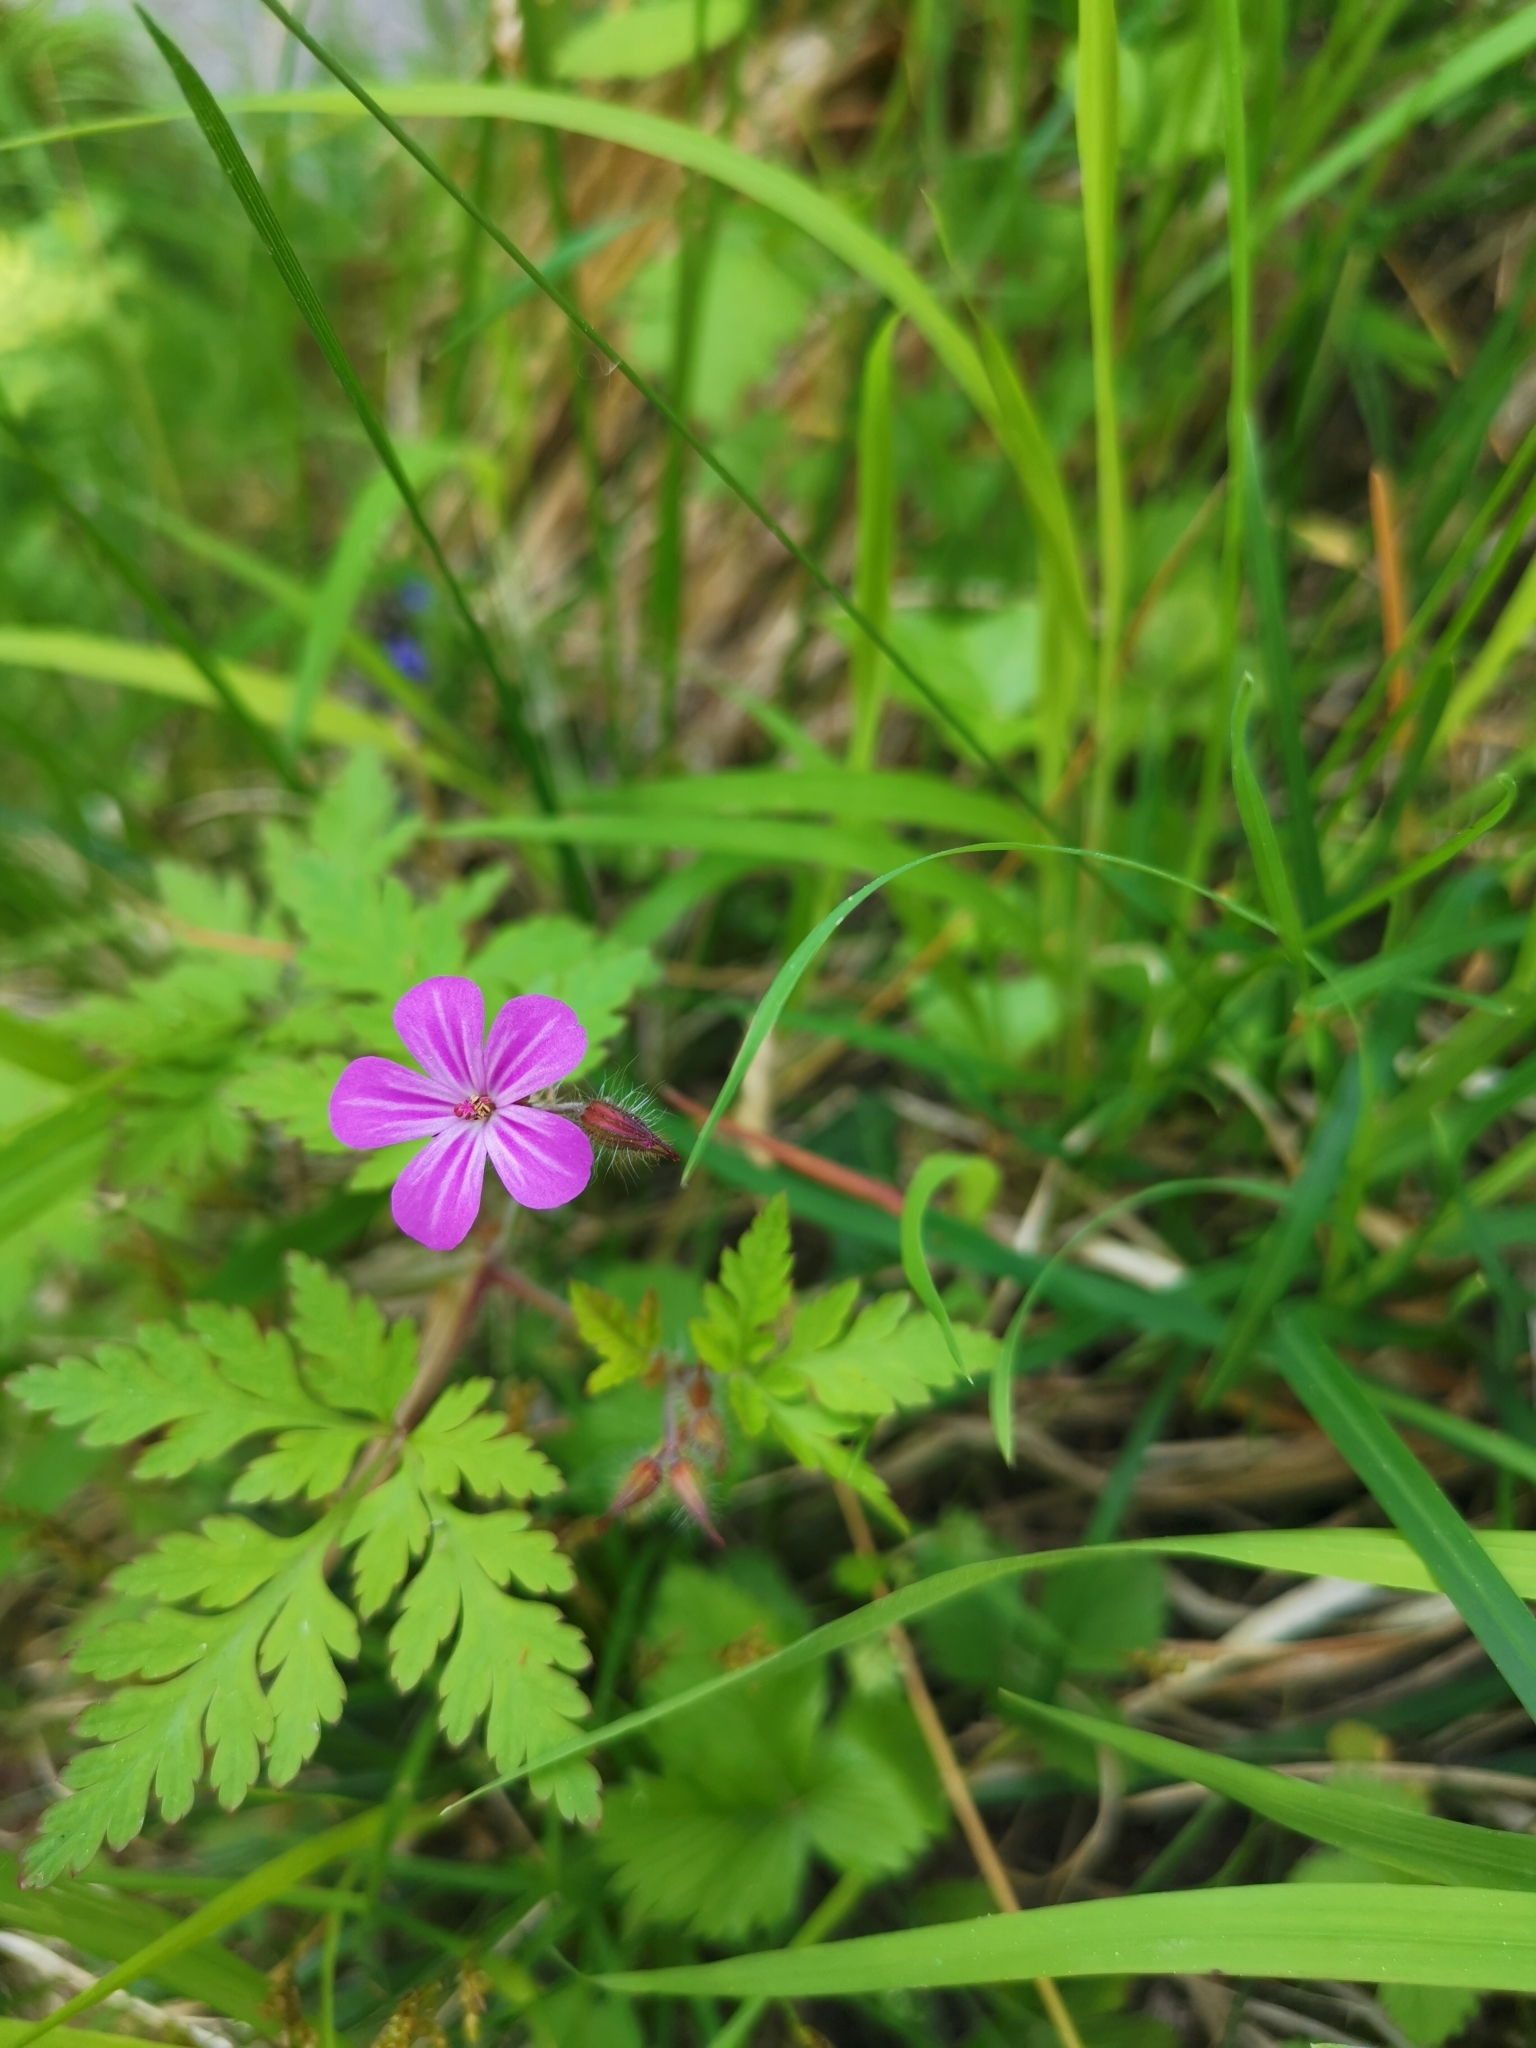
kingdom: Plantae
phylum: Tracheophyta
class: Magnoliopsida
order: Geraniales
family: Geraniaceae
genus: Geranium
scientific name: Geranium robertianum
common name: Herb-robert
